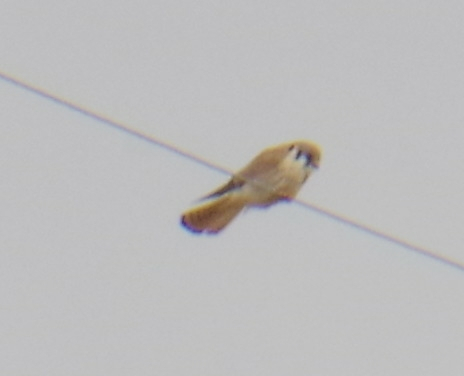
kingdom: Animalia
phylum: Chordata
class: Aves
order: Falconiformes
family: Falconidae
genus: Falco
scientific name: Falco sparverius
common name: American kestrel
